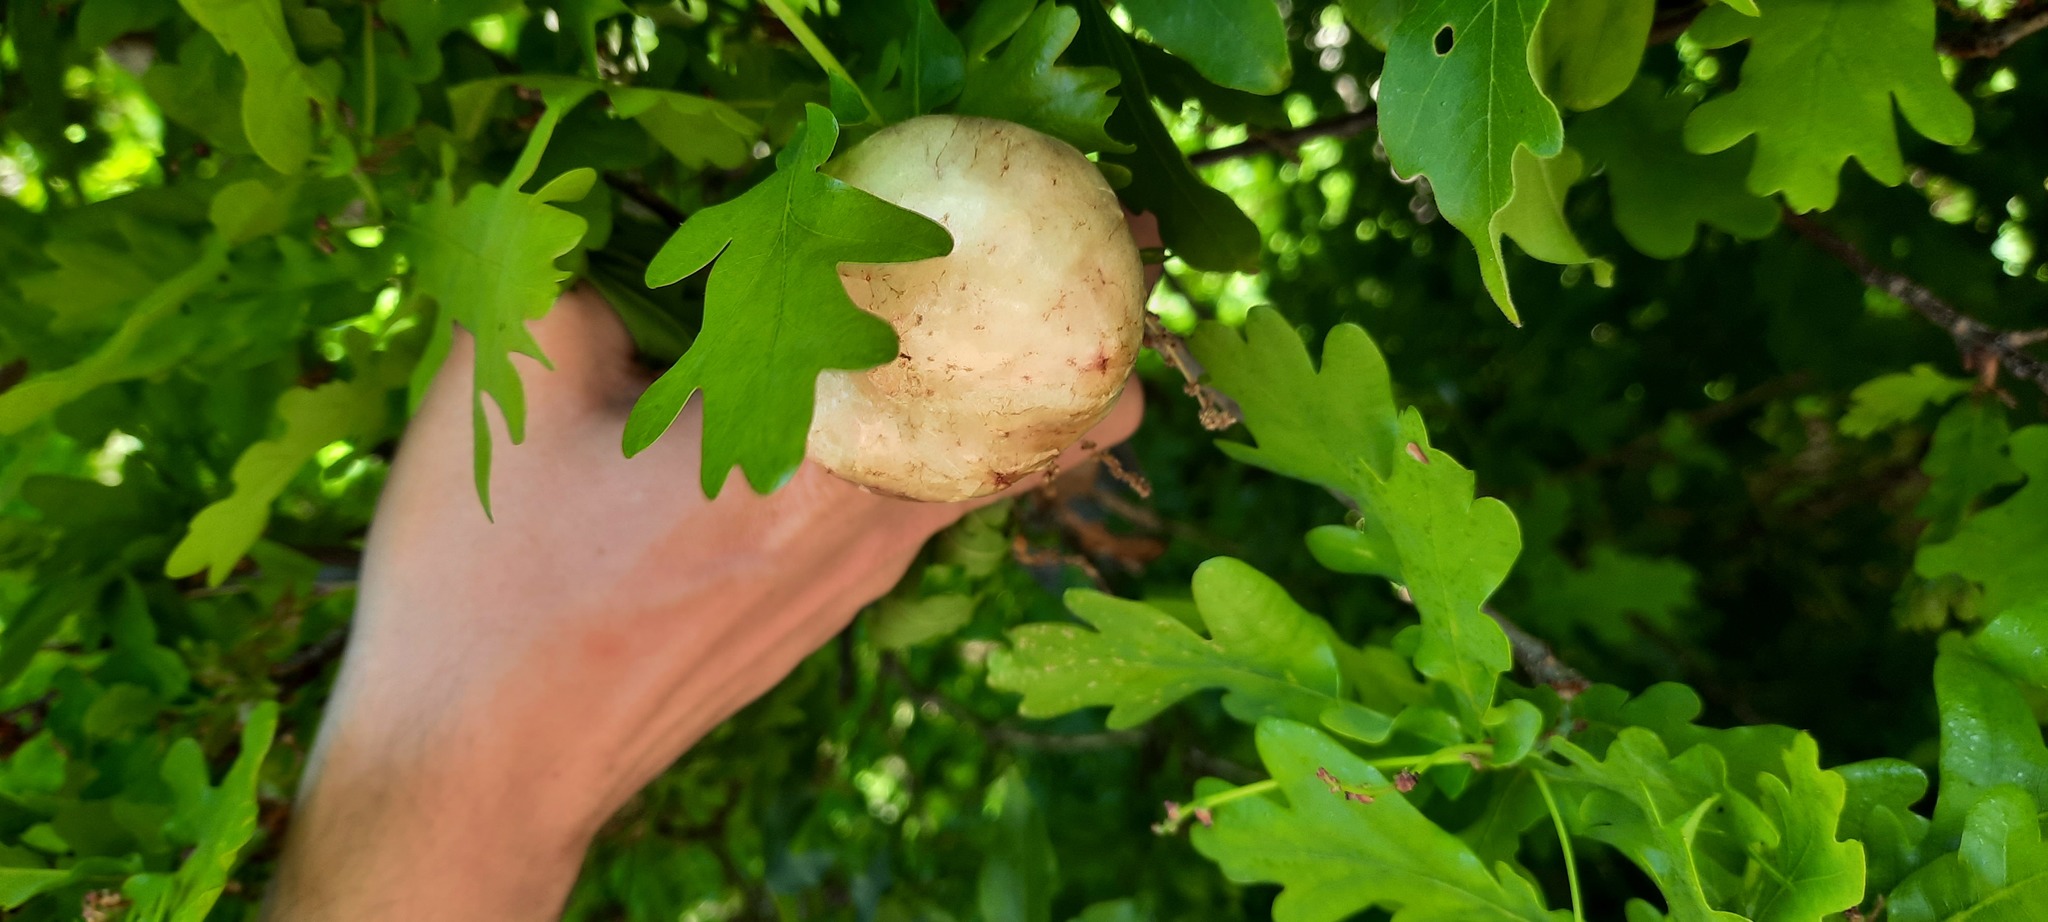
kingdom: Animalia
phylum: Arthropoda
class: Insecta
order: Hymenoptera
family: Cynipidae
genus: Biorhiza
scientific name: Biorhiza pallida
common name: Oak apple
